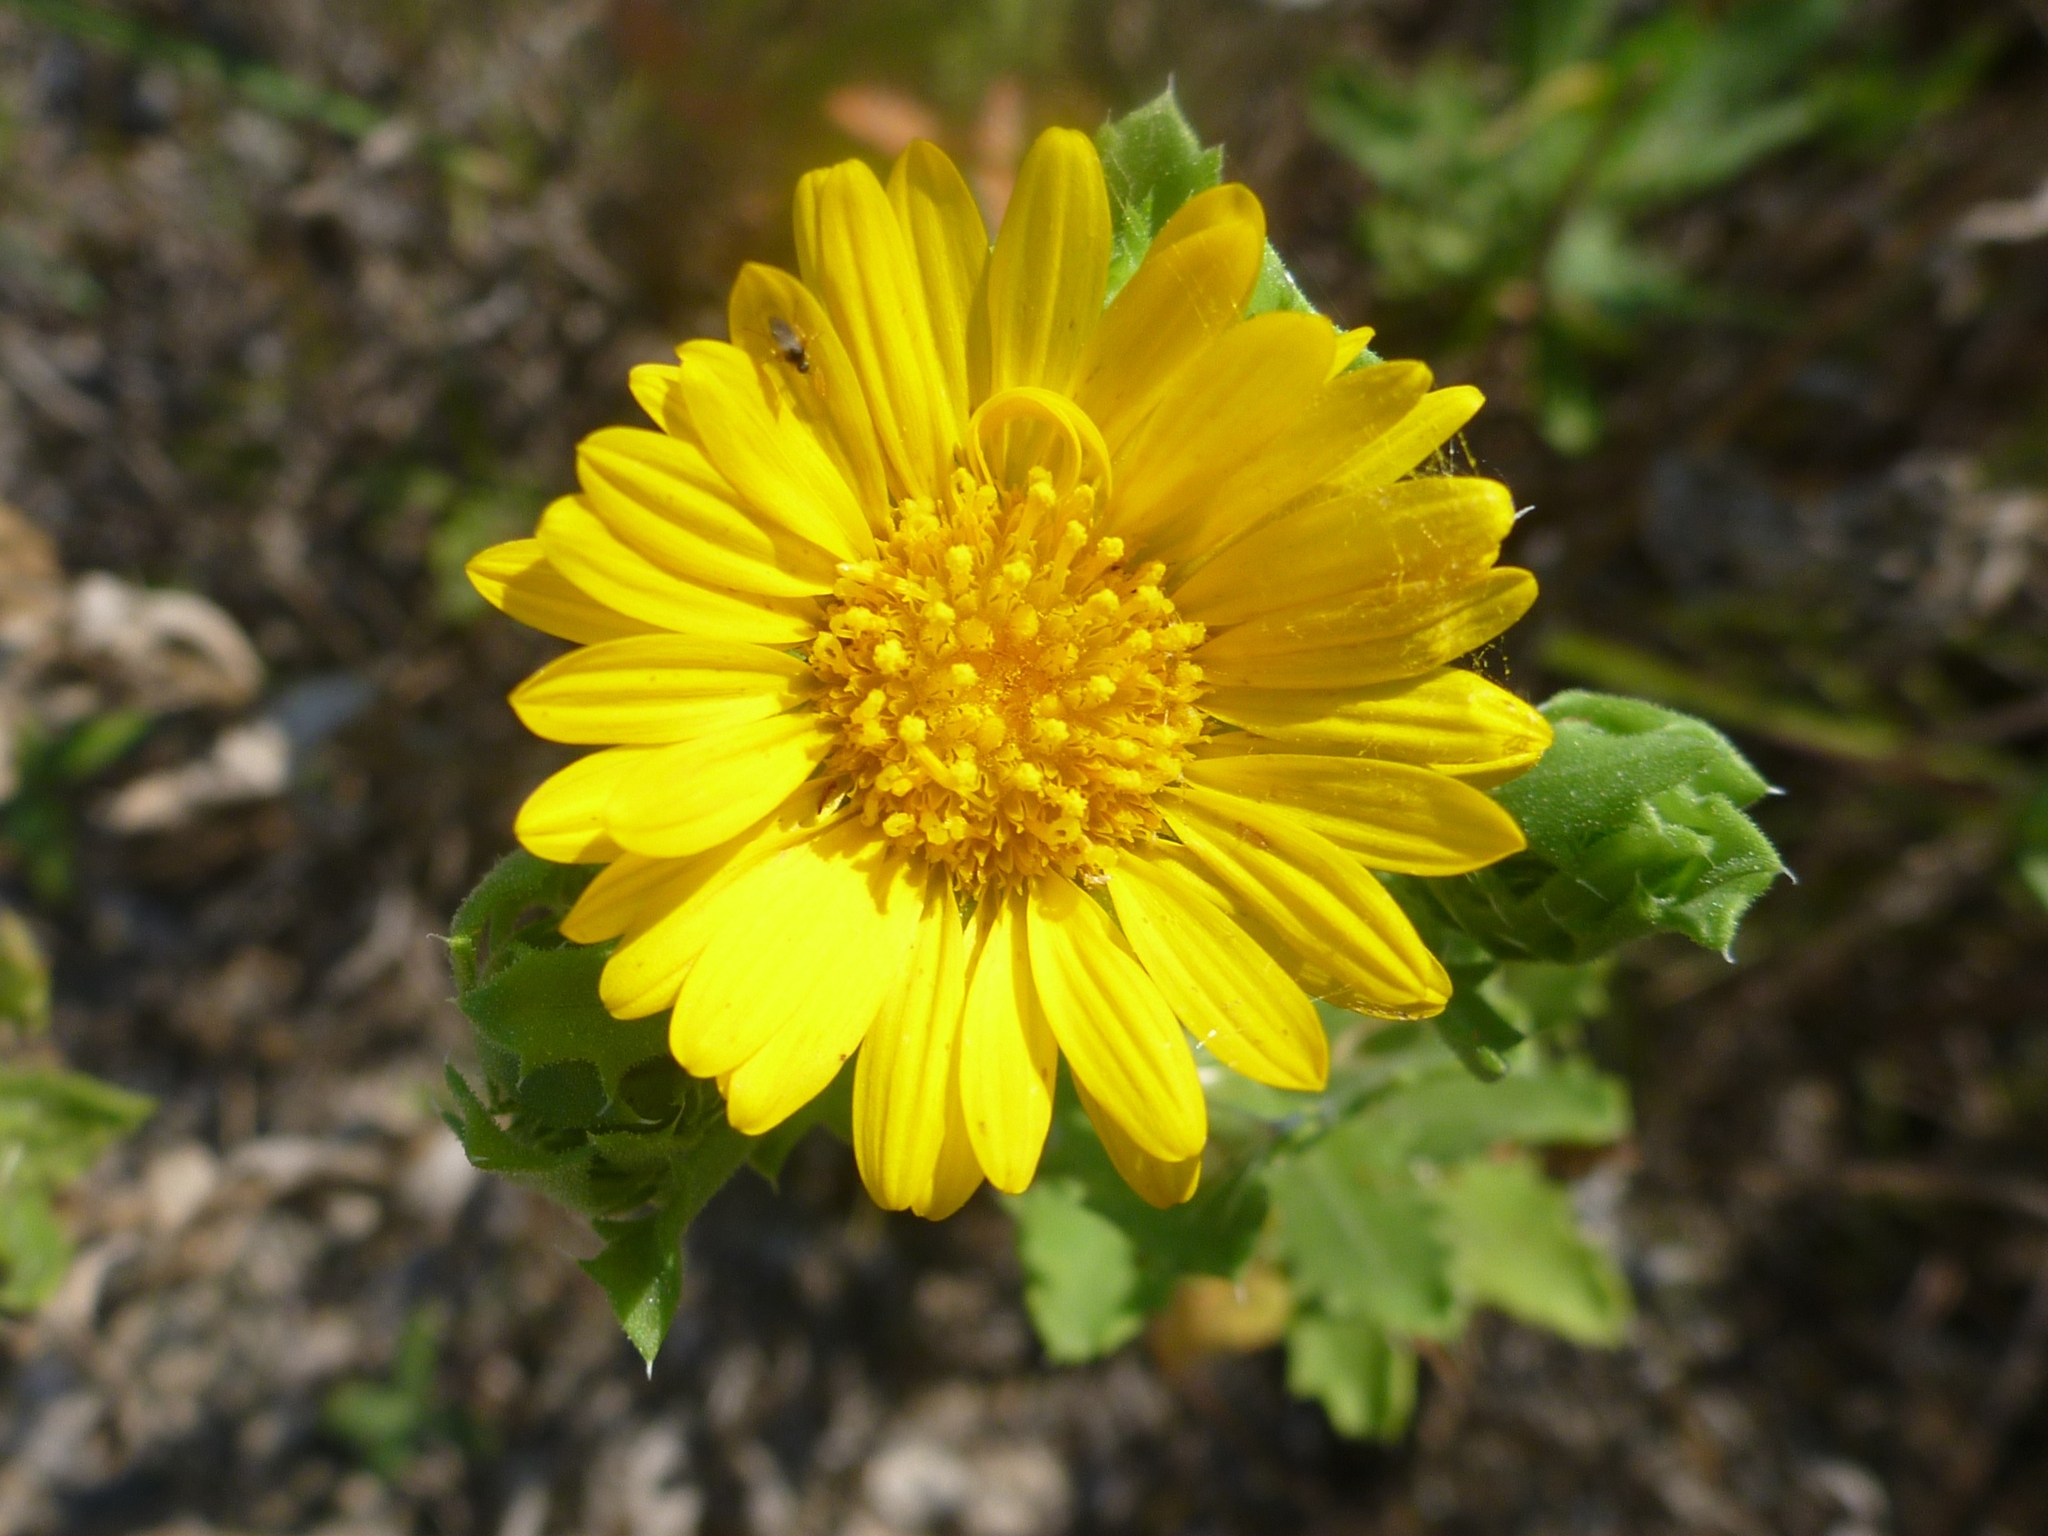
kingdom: Plantae
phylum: Tracheophyta
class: Magnoliopsida
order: Asterales
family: Asteraceae
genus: Rayjacksonia
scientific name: Rayjacksonia phyllocephala
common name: Gulf coast camphor daisy
